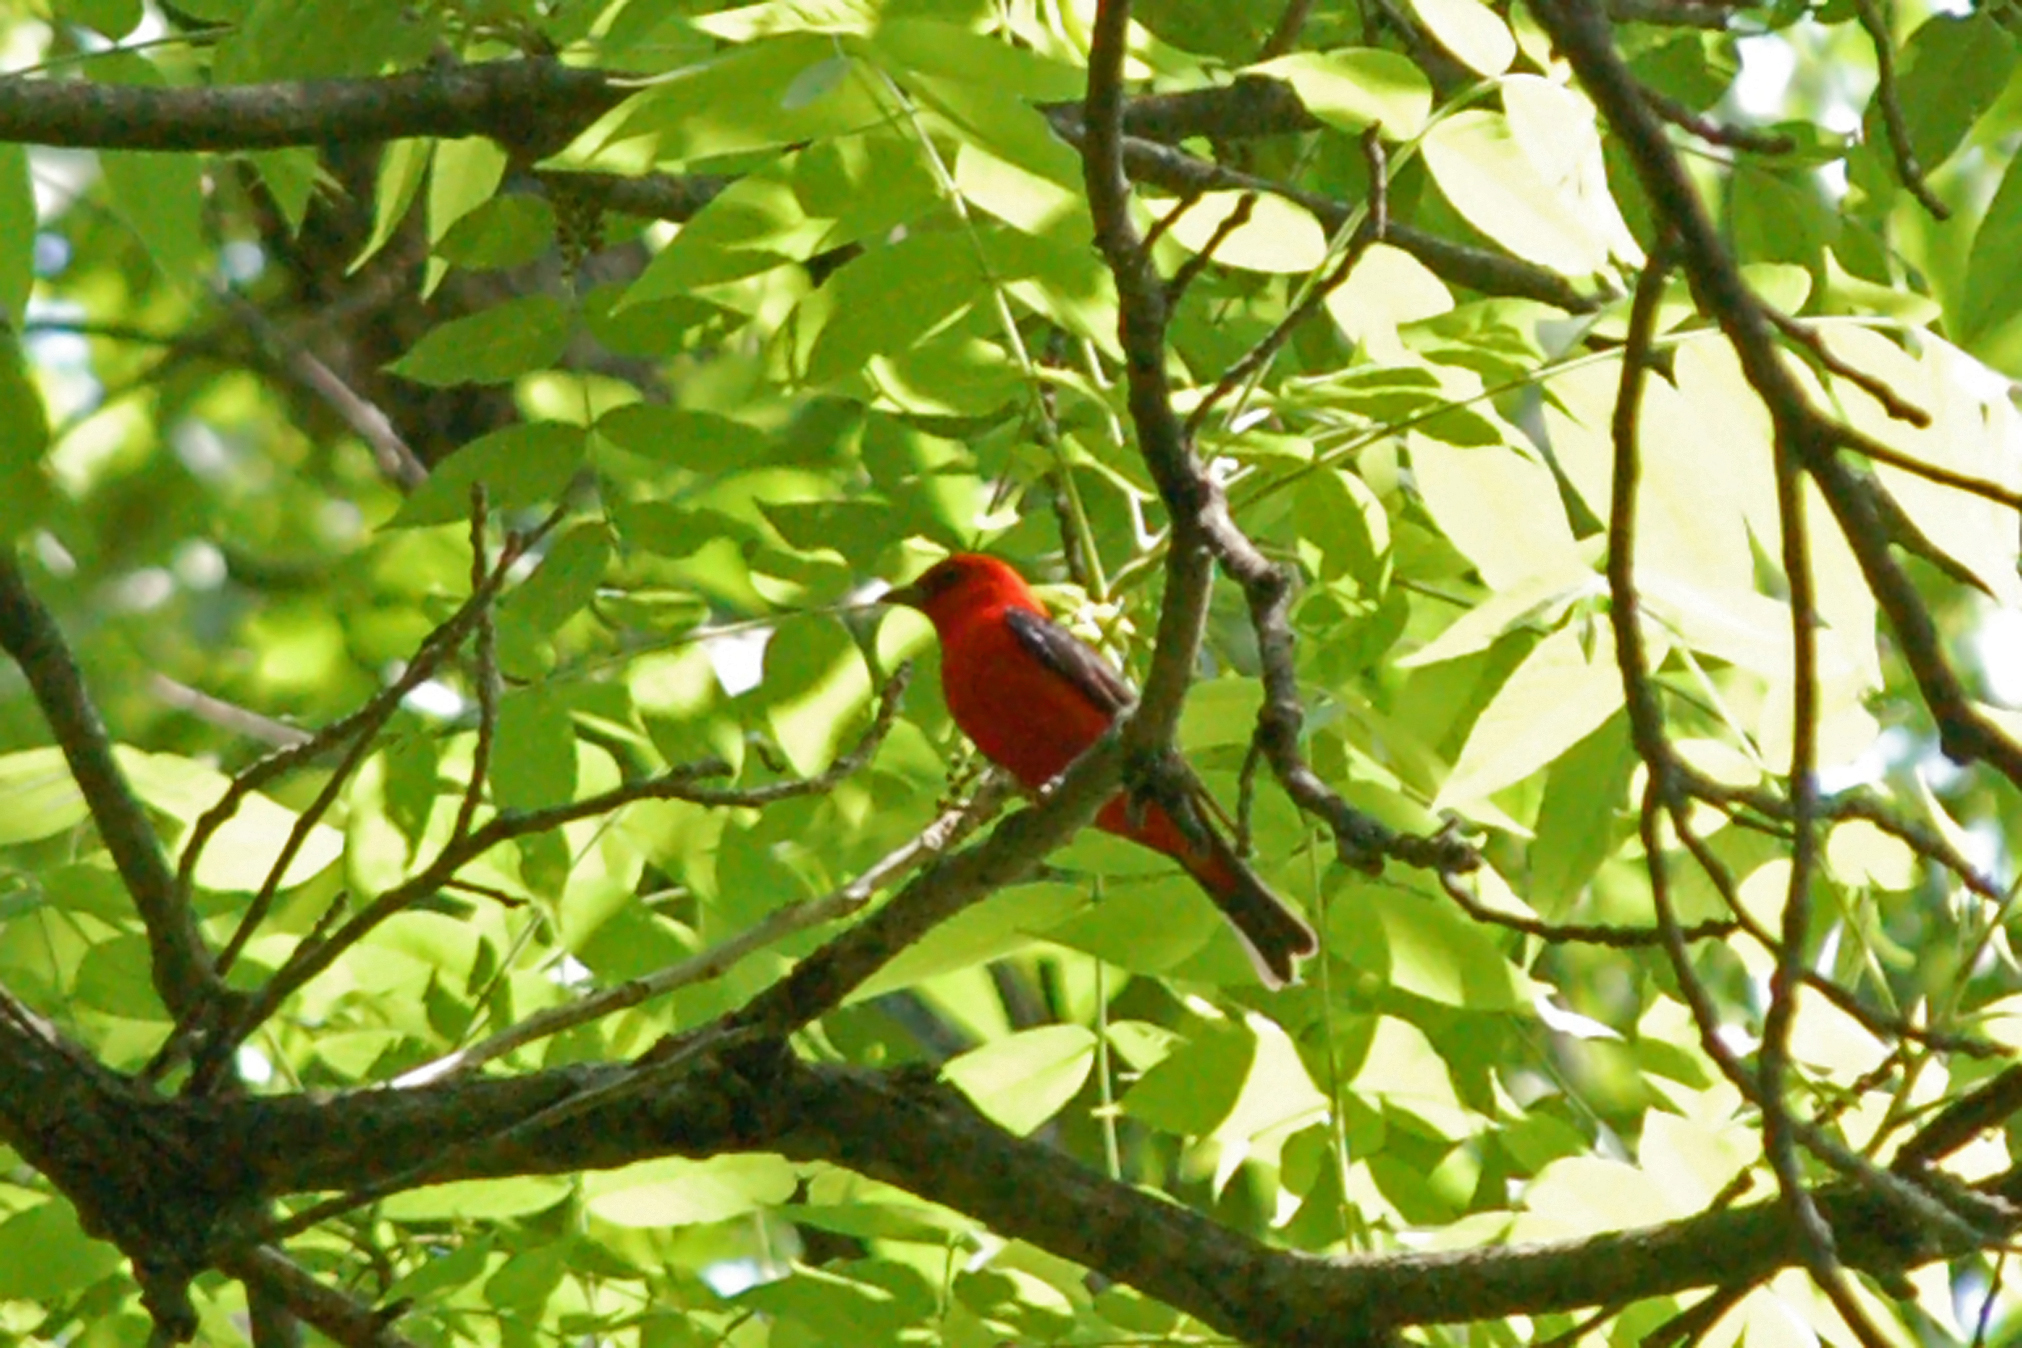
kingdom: Animalia
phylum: Chordata
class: Aves
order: Passeriformes
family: Cardinalidae
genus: Piranga
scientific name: Piranga olivacea
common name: Scarlet tanager
